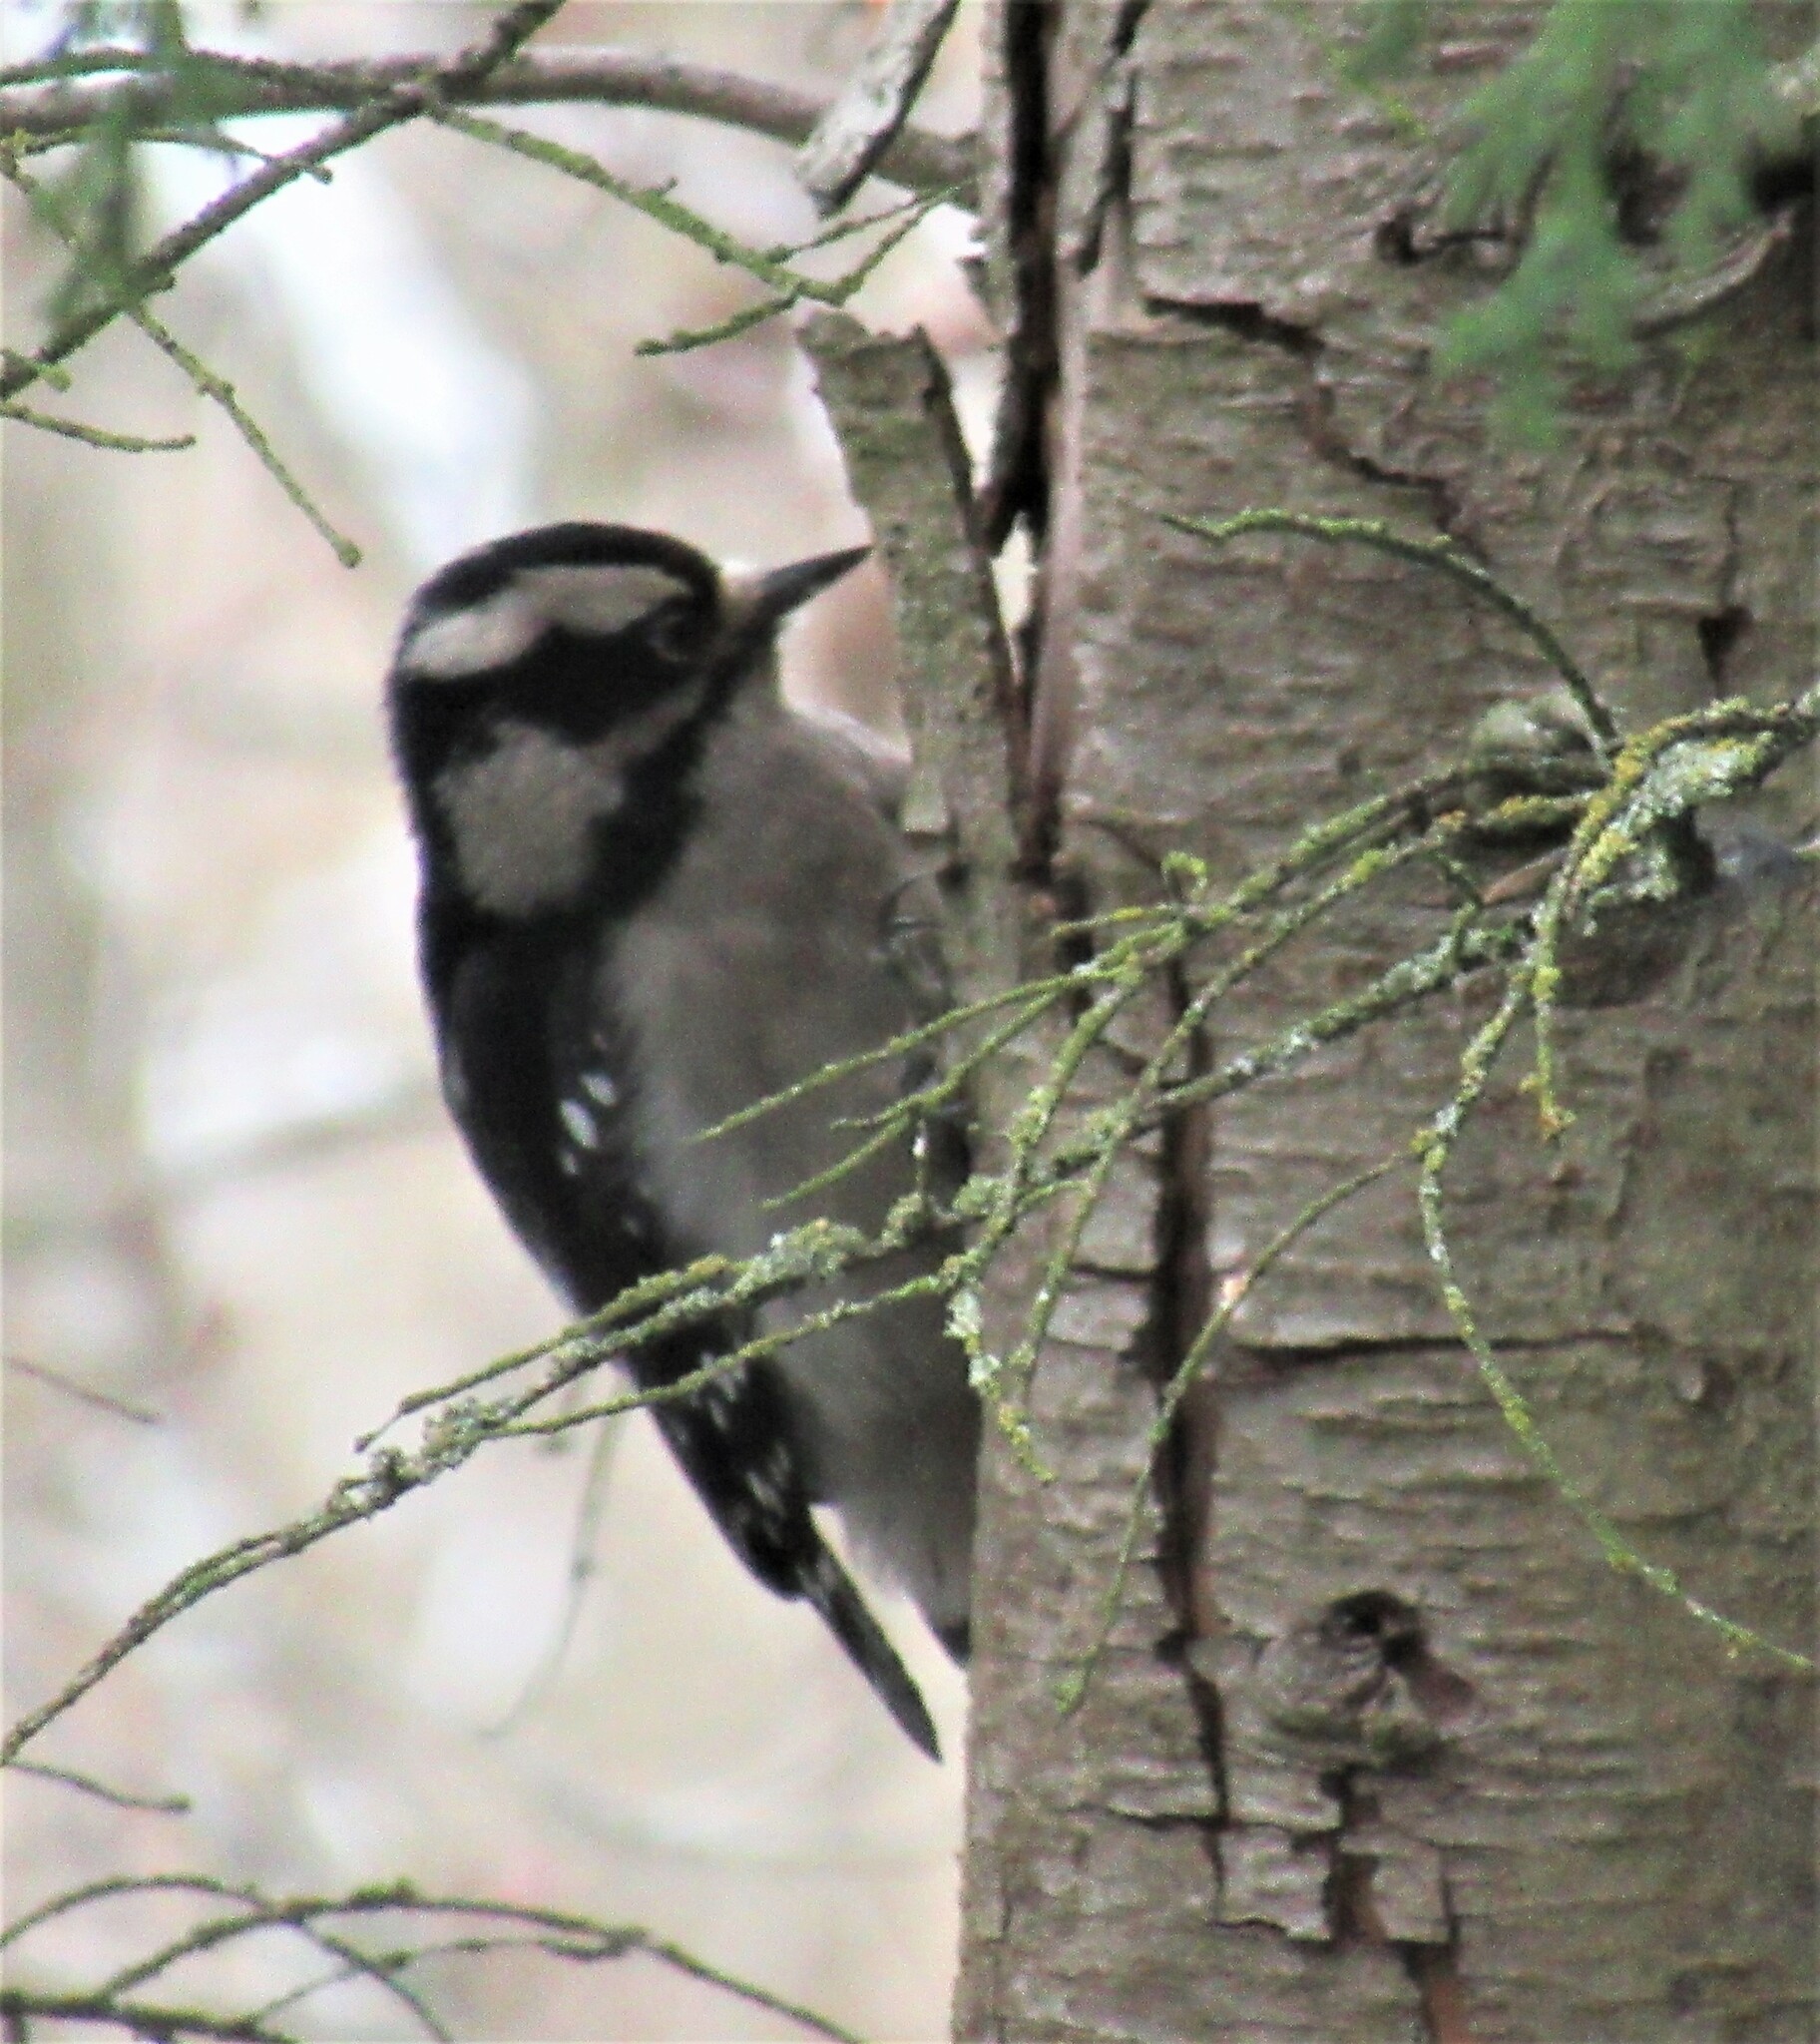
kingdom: Animalia
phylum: Chordata
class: Aves
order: Piciformes
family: Picidae
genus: Dryobates
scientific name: Dryobates pubescens
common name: Downy woodpecker
